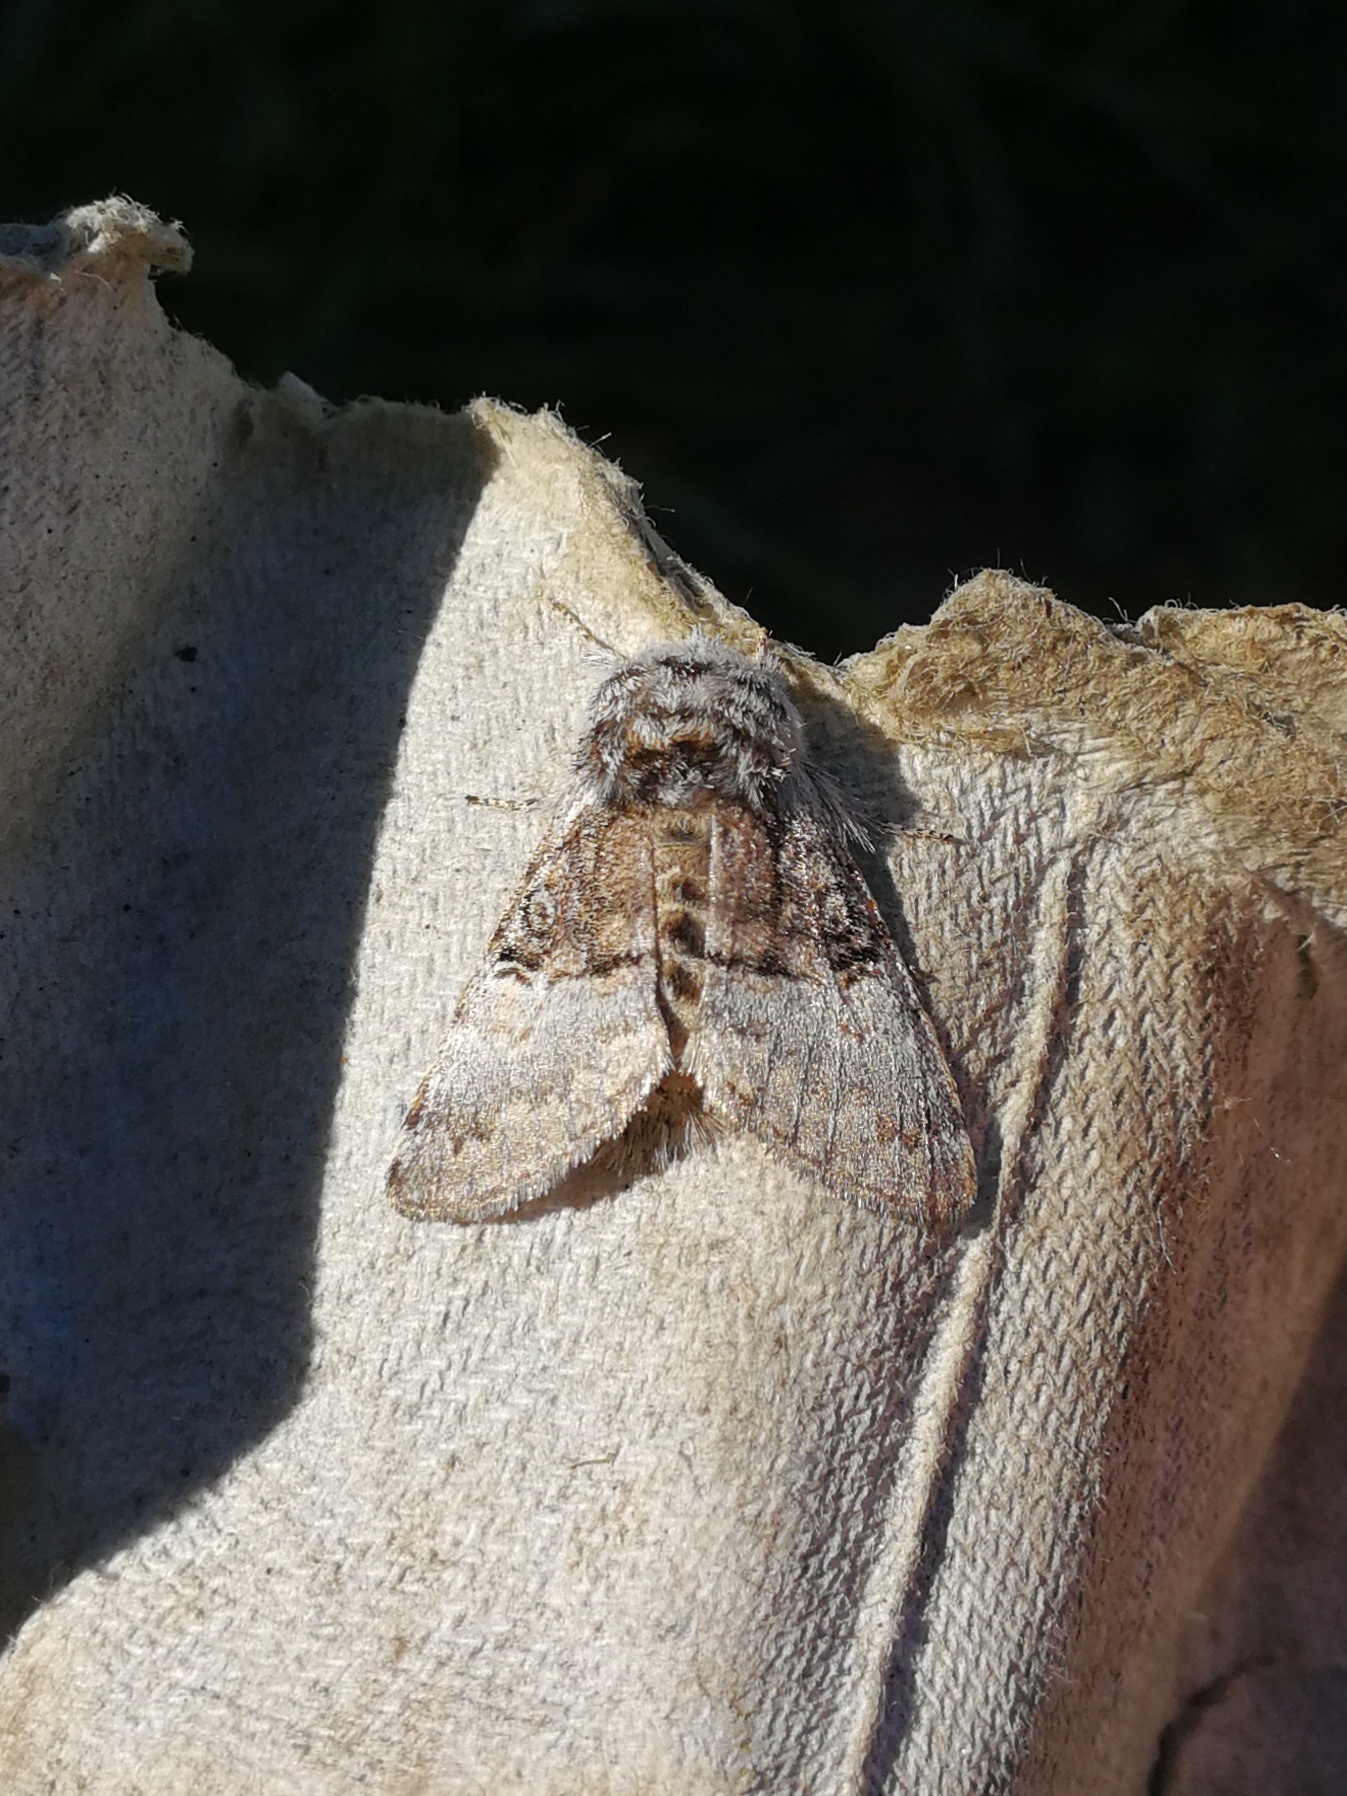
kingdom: Animalia
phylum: Arthropoda
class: Insecta
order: Lepidoptera
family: Noctuidae
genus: Colocasia
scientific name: Colocasia coryli
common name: Nut-tree tussock
